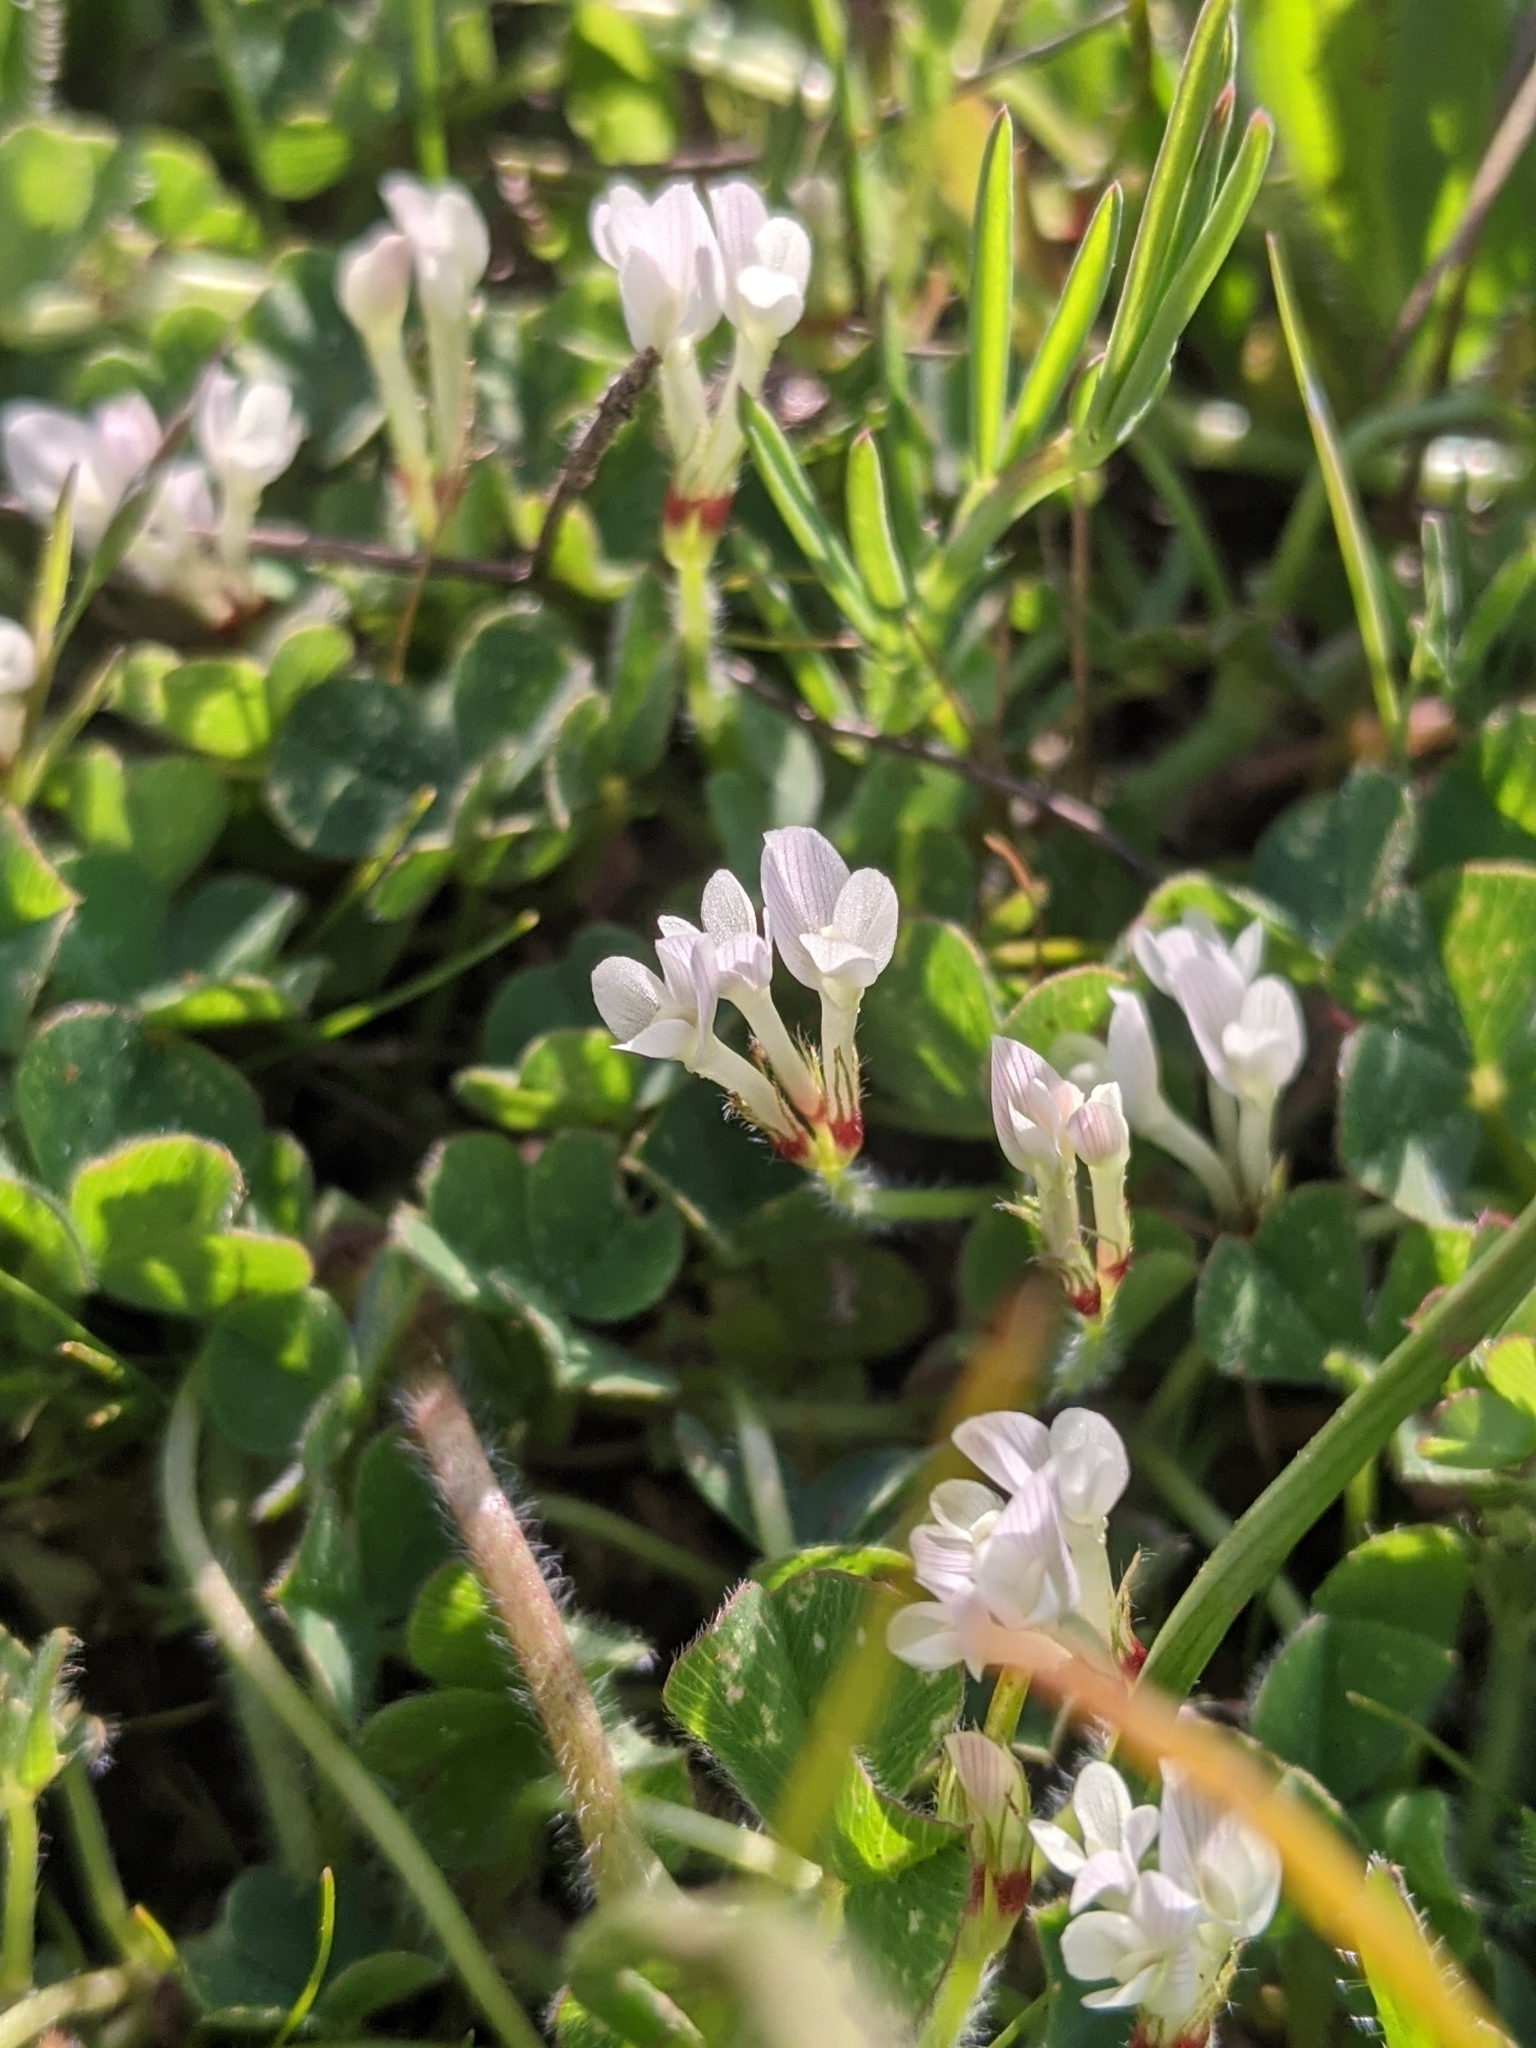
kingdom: Plantae
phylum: Tracheophyta
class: Magnoliopsida
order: Fabales
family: Fabaceae
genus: Trifolium
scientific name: Trifolium subterraneum
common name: Subterranean clover
